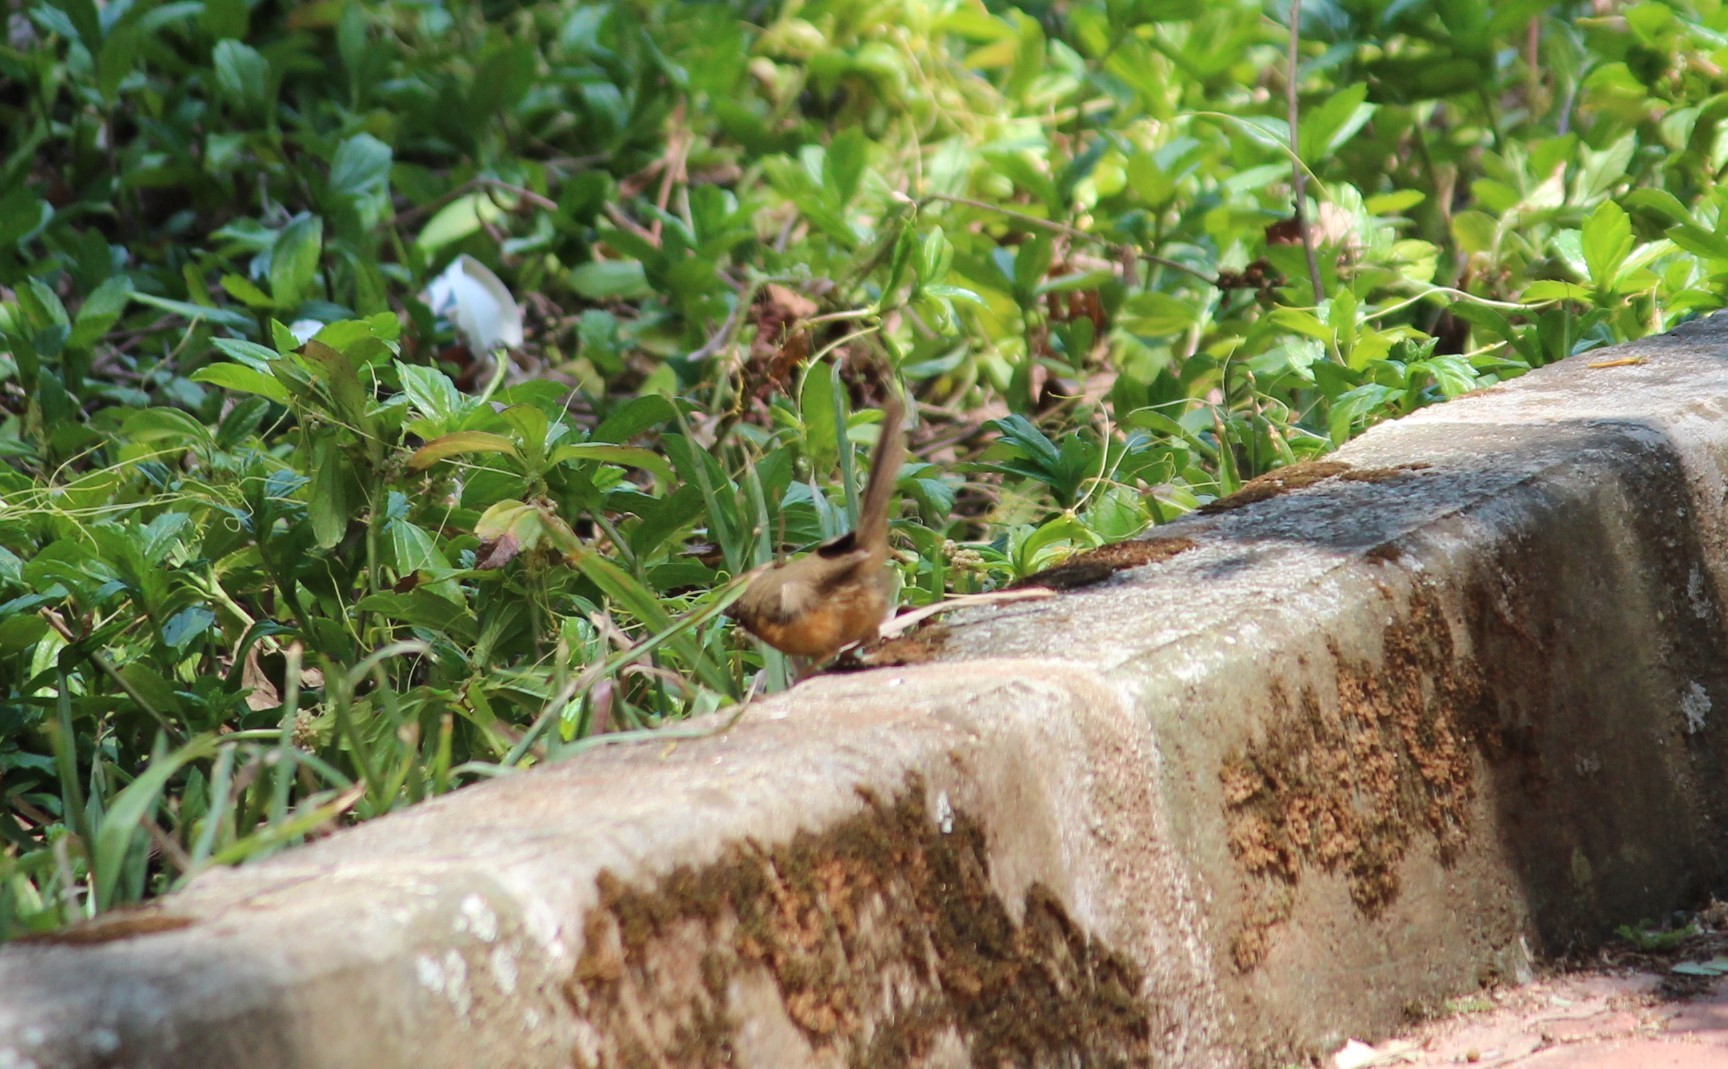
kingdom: Animalia
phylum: Chordata
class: Aves
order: Passeriformes
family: Timaliidae
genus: Dumetia
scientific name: Dumetia hyperythra
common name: Tawny-bellied babbler
